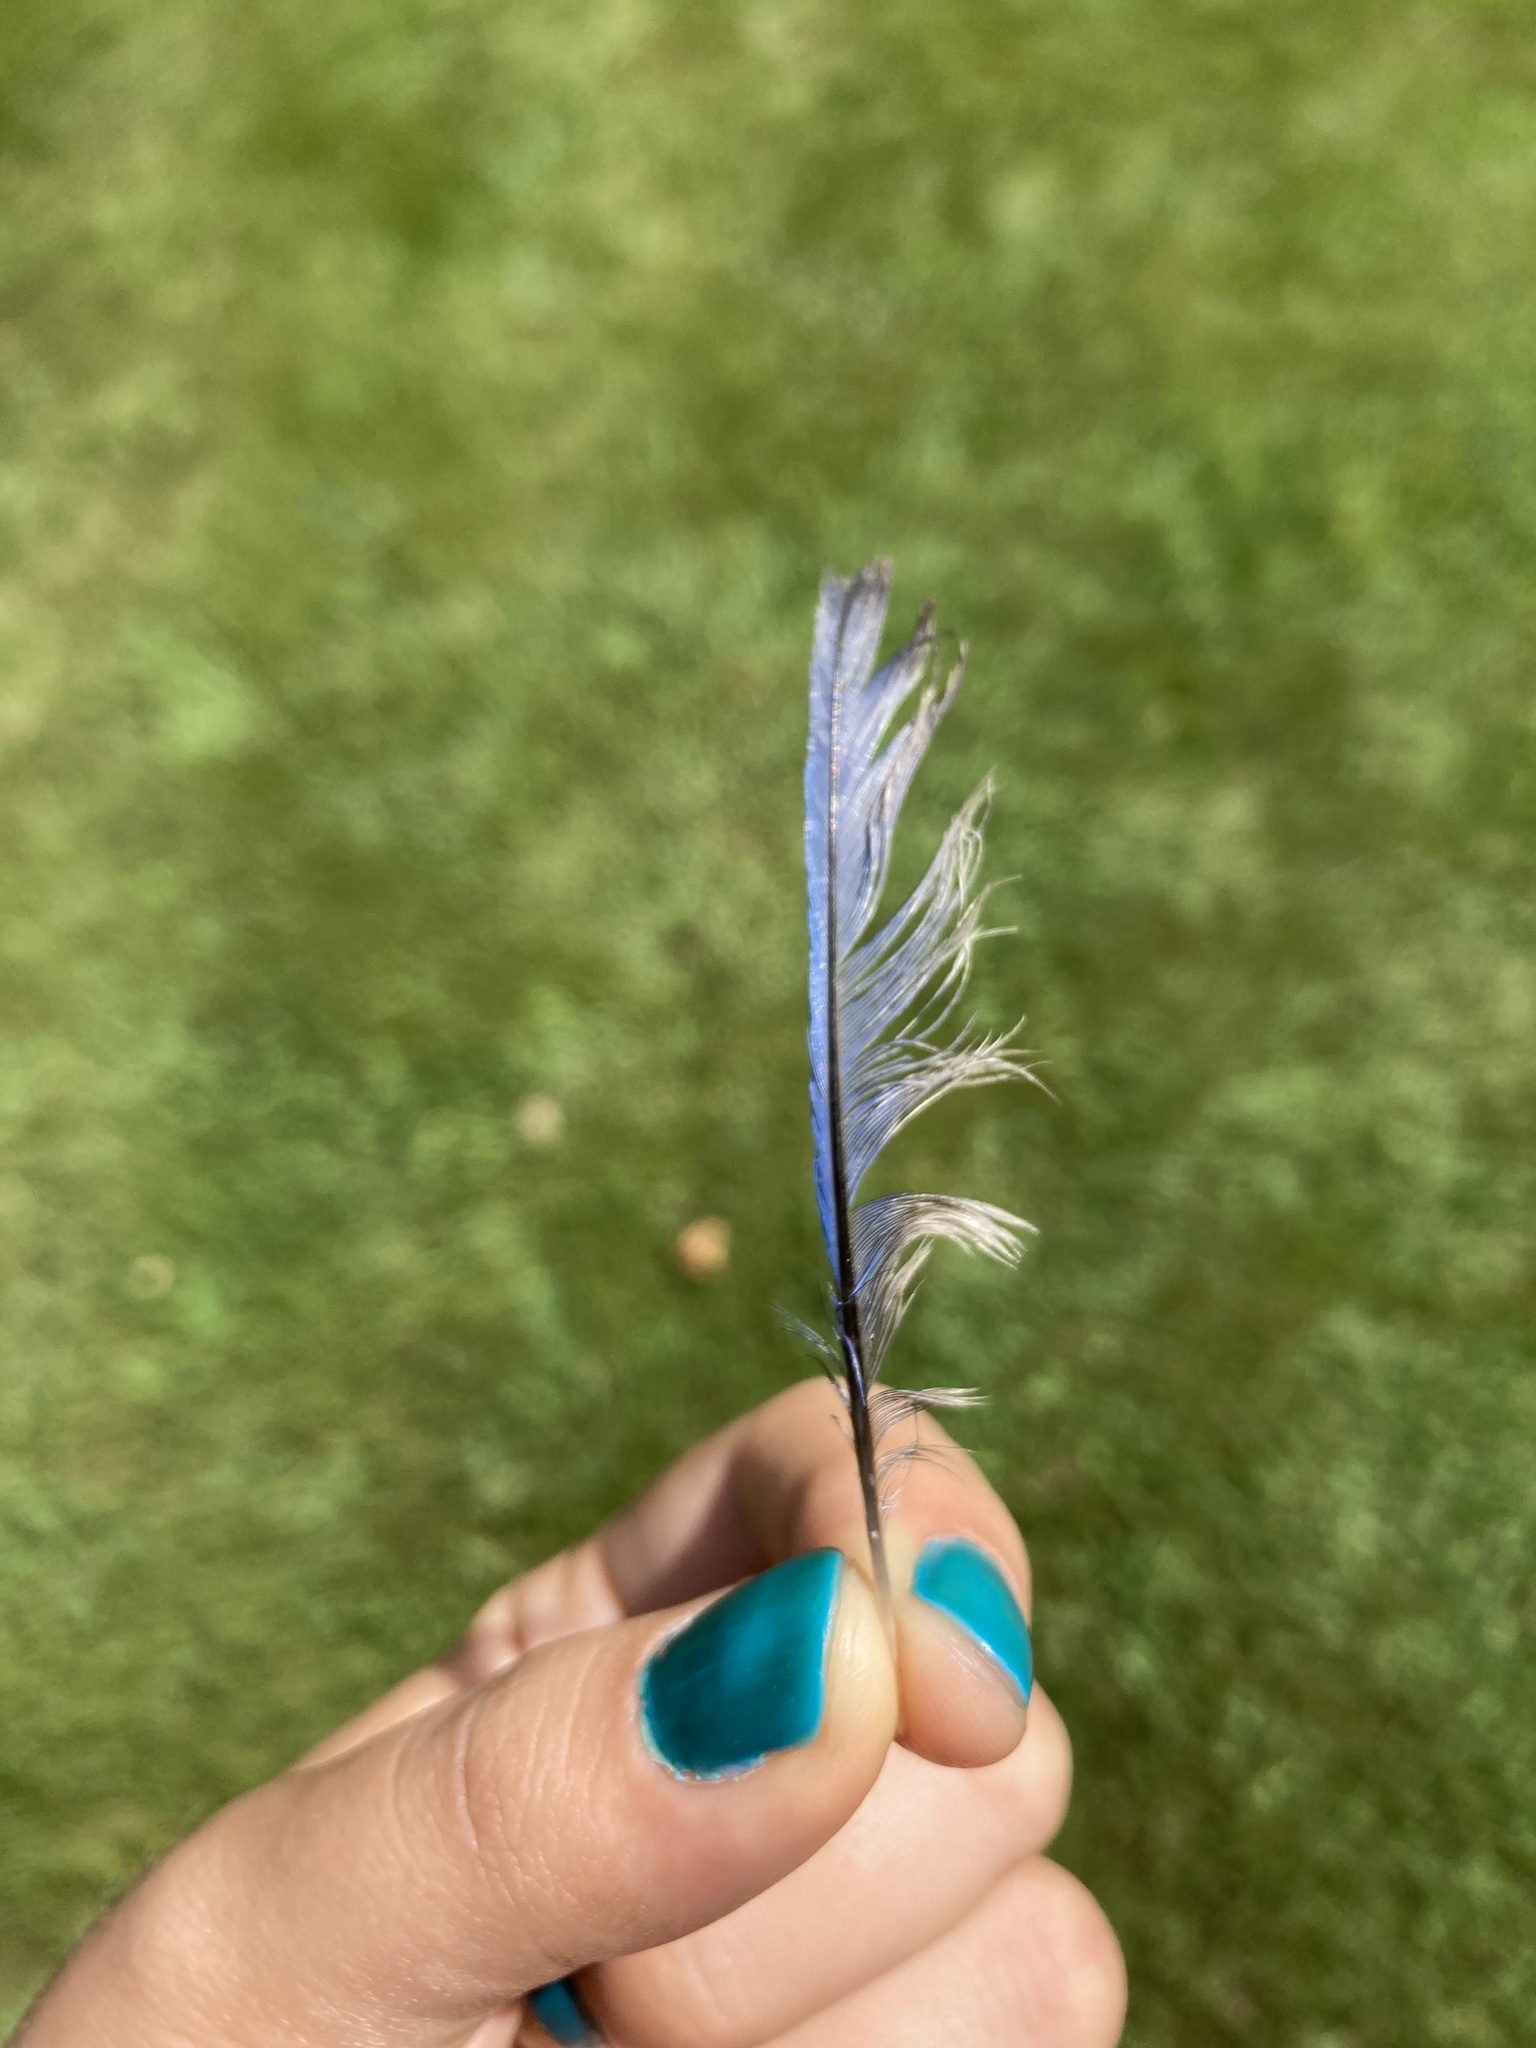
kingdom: Animalia
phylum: Chordata
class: Aves
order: Passeriformes
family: Turdidae
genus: Sialia
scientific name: Sialia sialis
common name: Eastern bluebird
